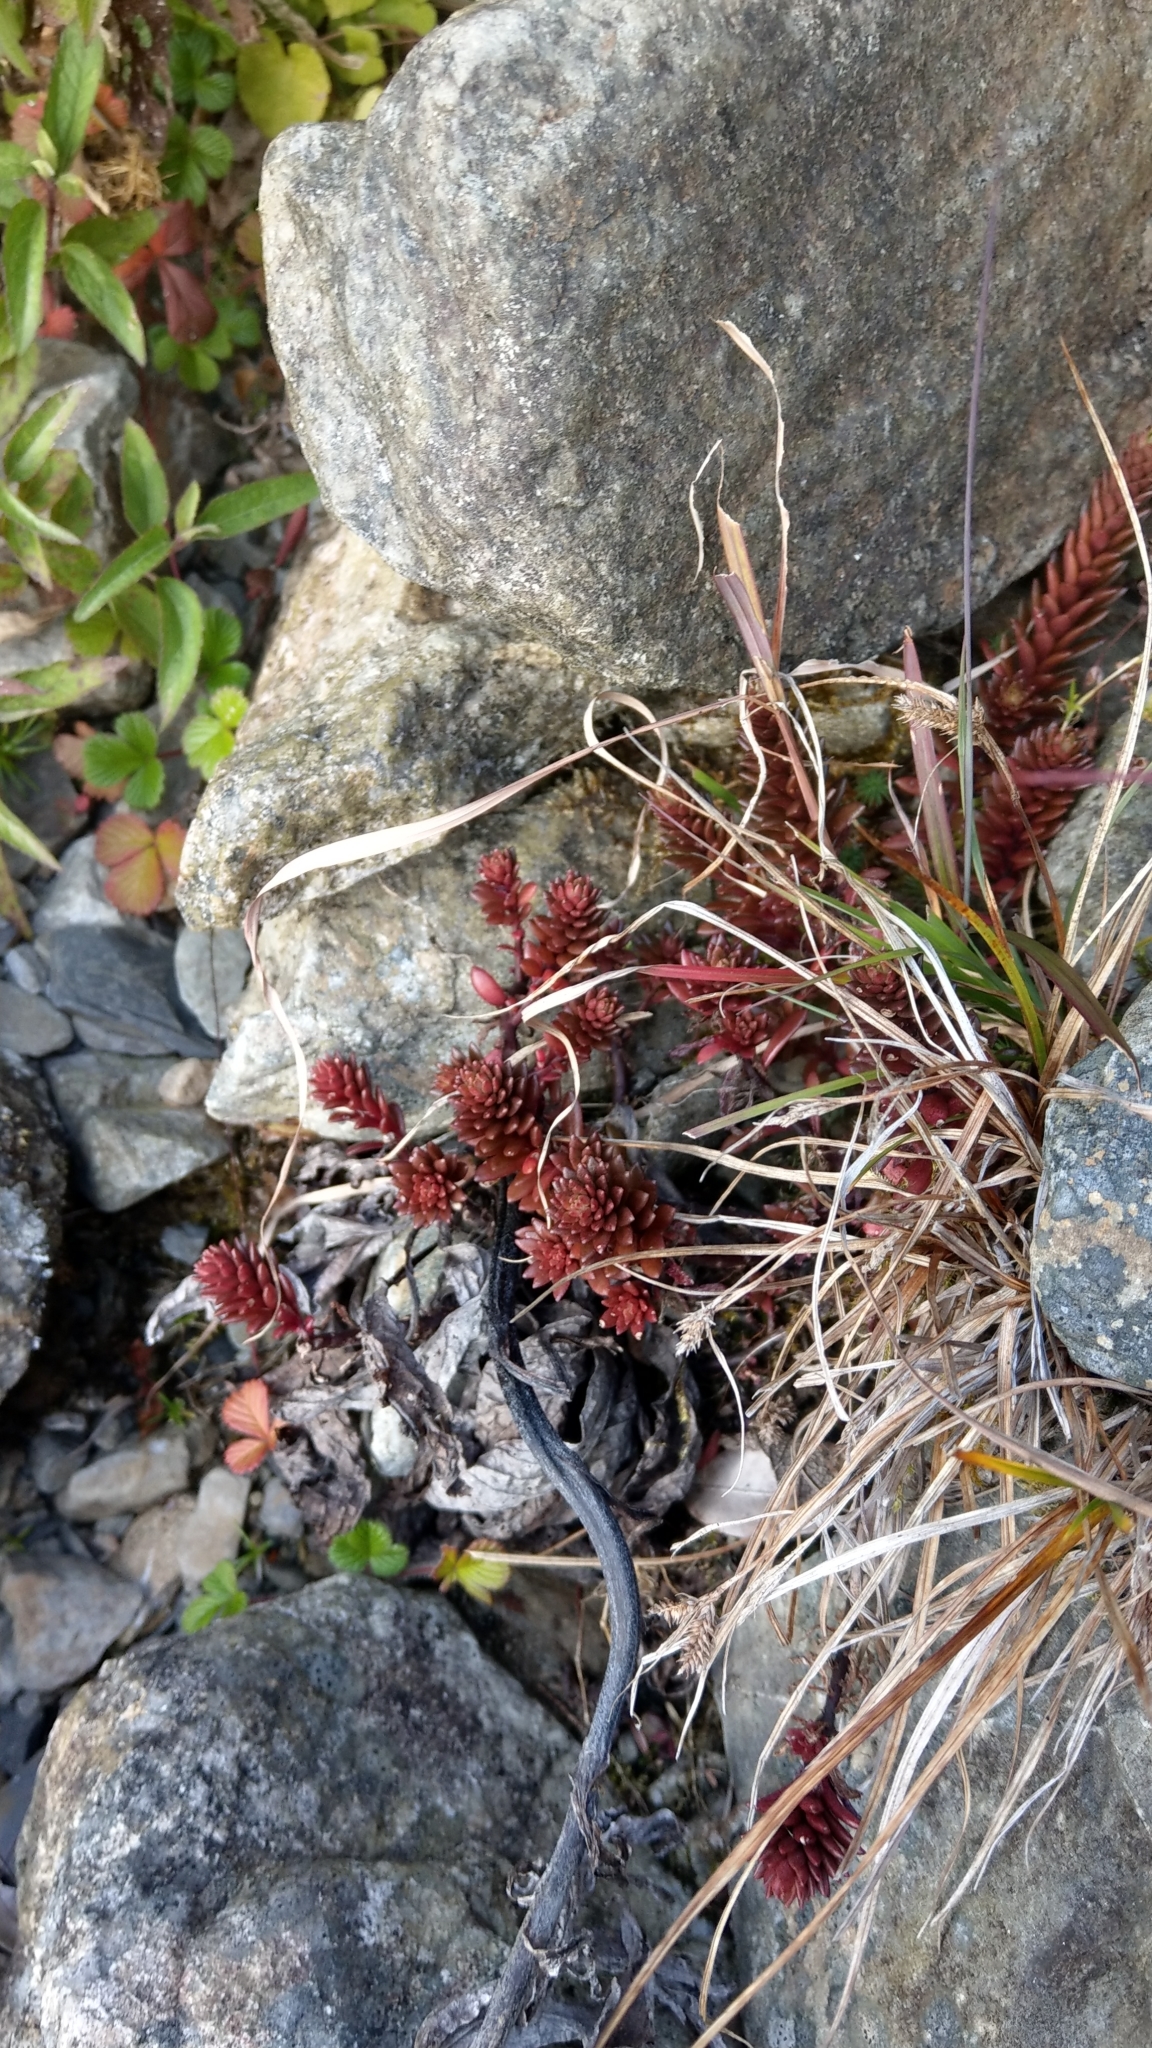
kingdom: Plantae
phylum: Tracheophyta
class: Magnoliopsida
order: Saxifragales
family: Crassulaceae
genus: Sedum
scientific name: Sedum morrisonense
